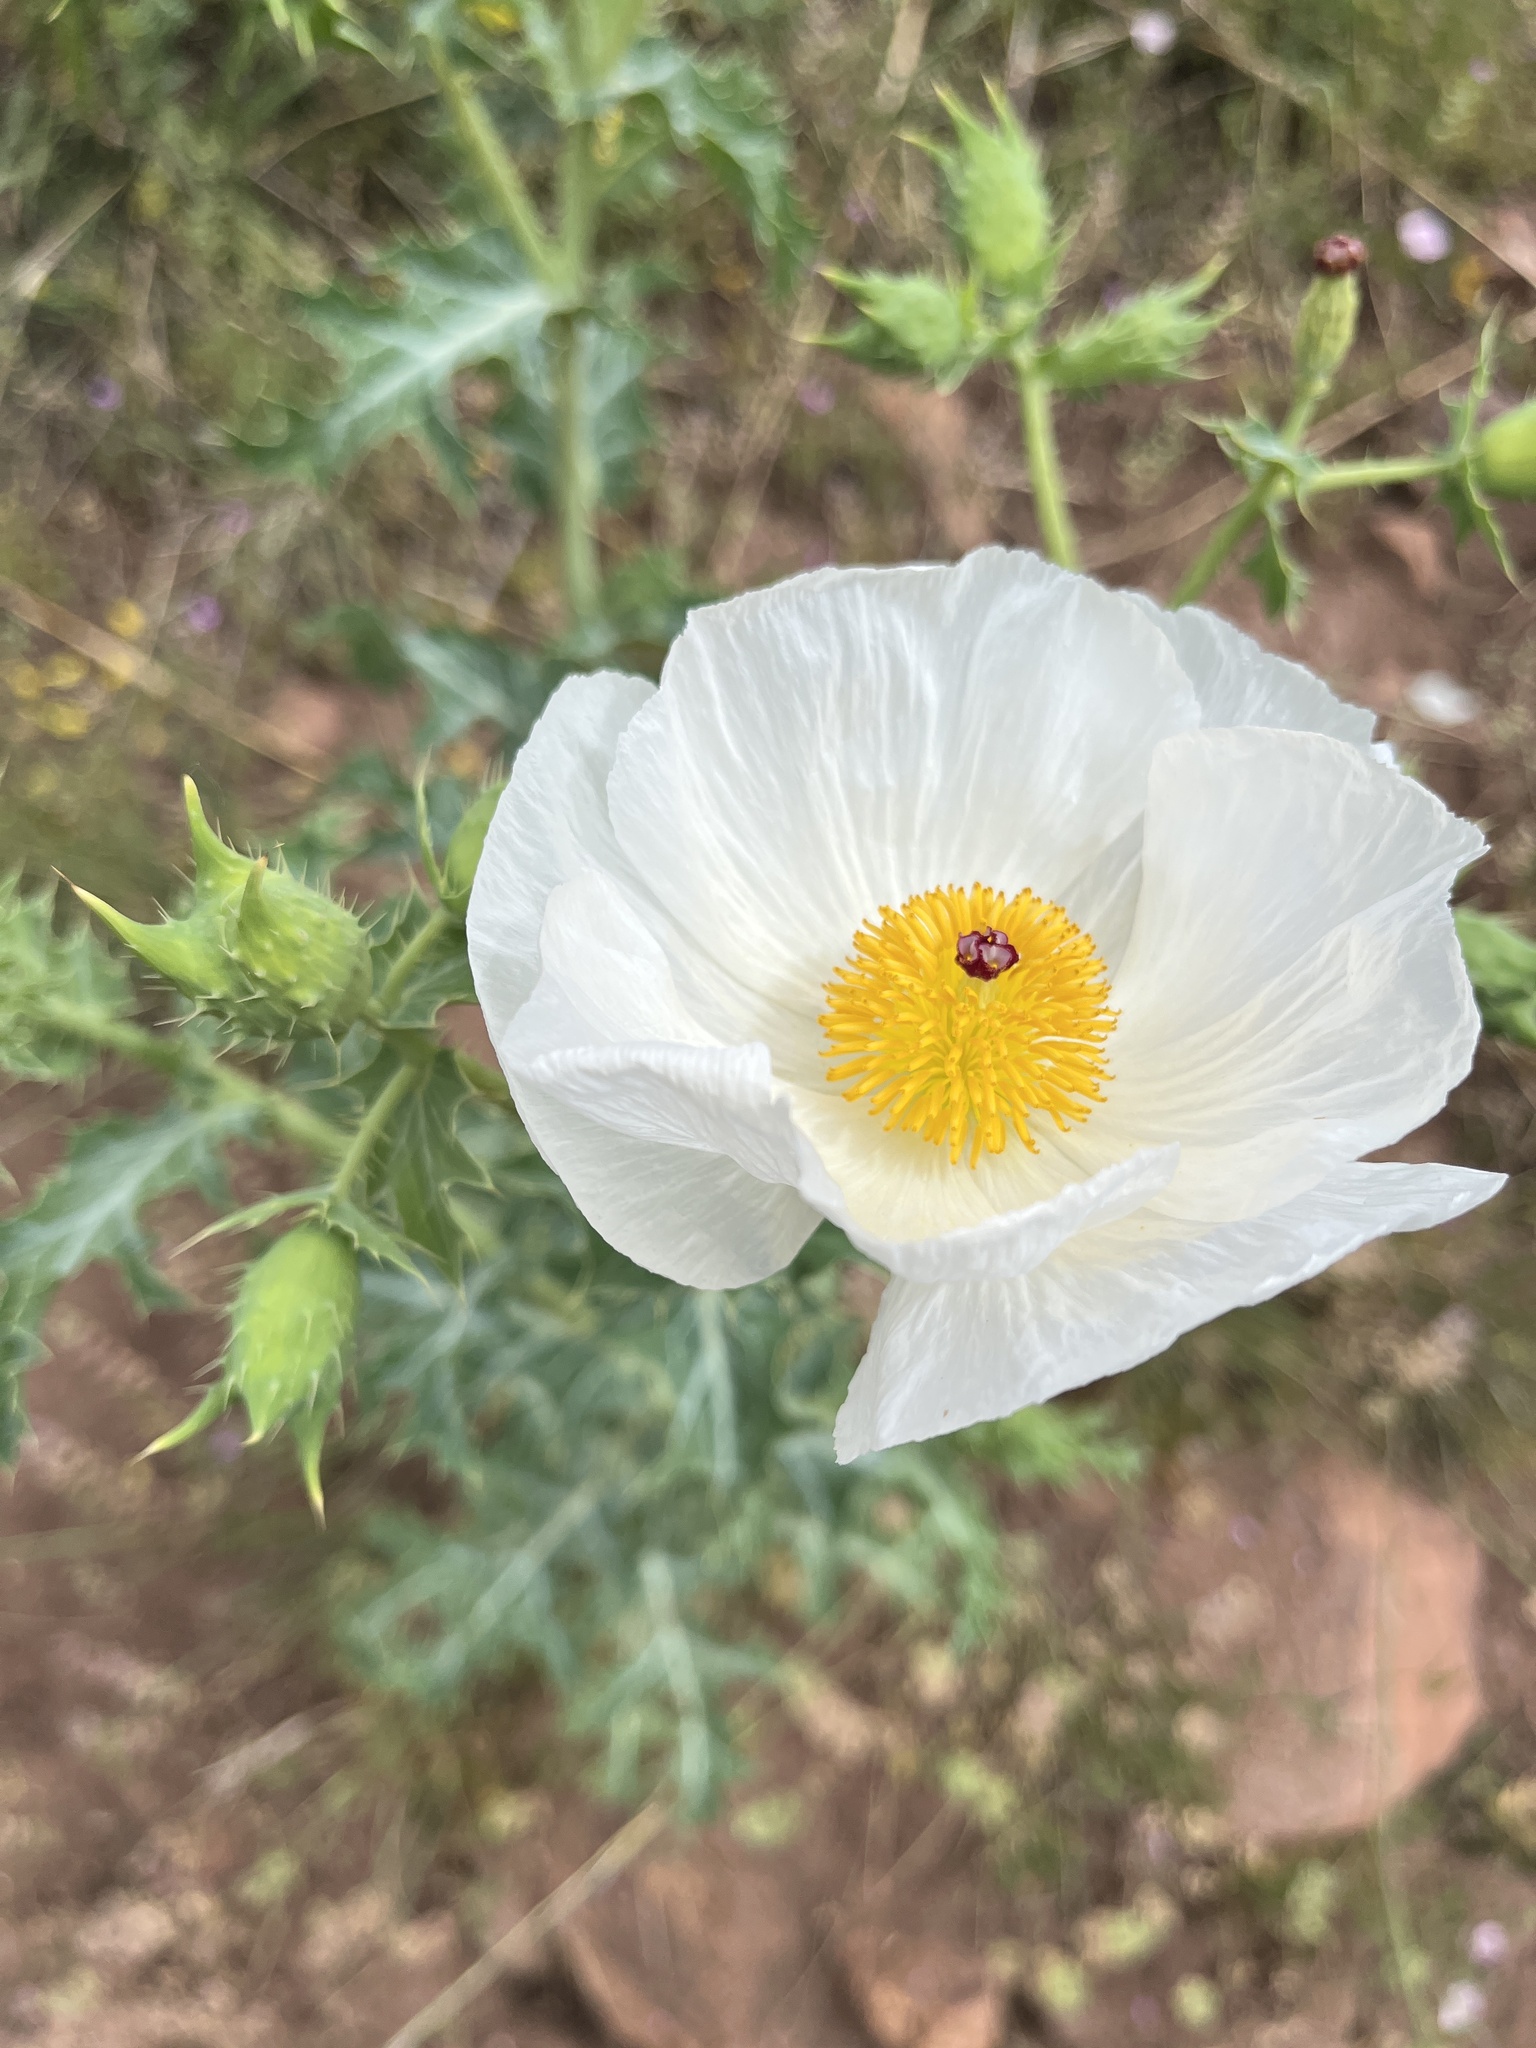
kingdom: Plantae
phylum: Tracheophyta
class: Magnoliopsida
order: Ranunculales
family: Papaveraceae
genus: Argemone
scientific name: Argemone polyanthemos
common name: Plains prickly-poppy
